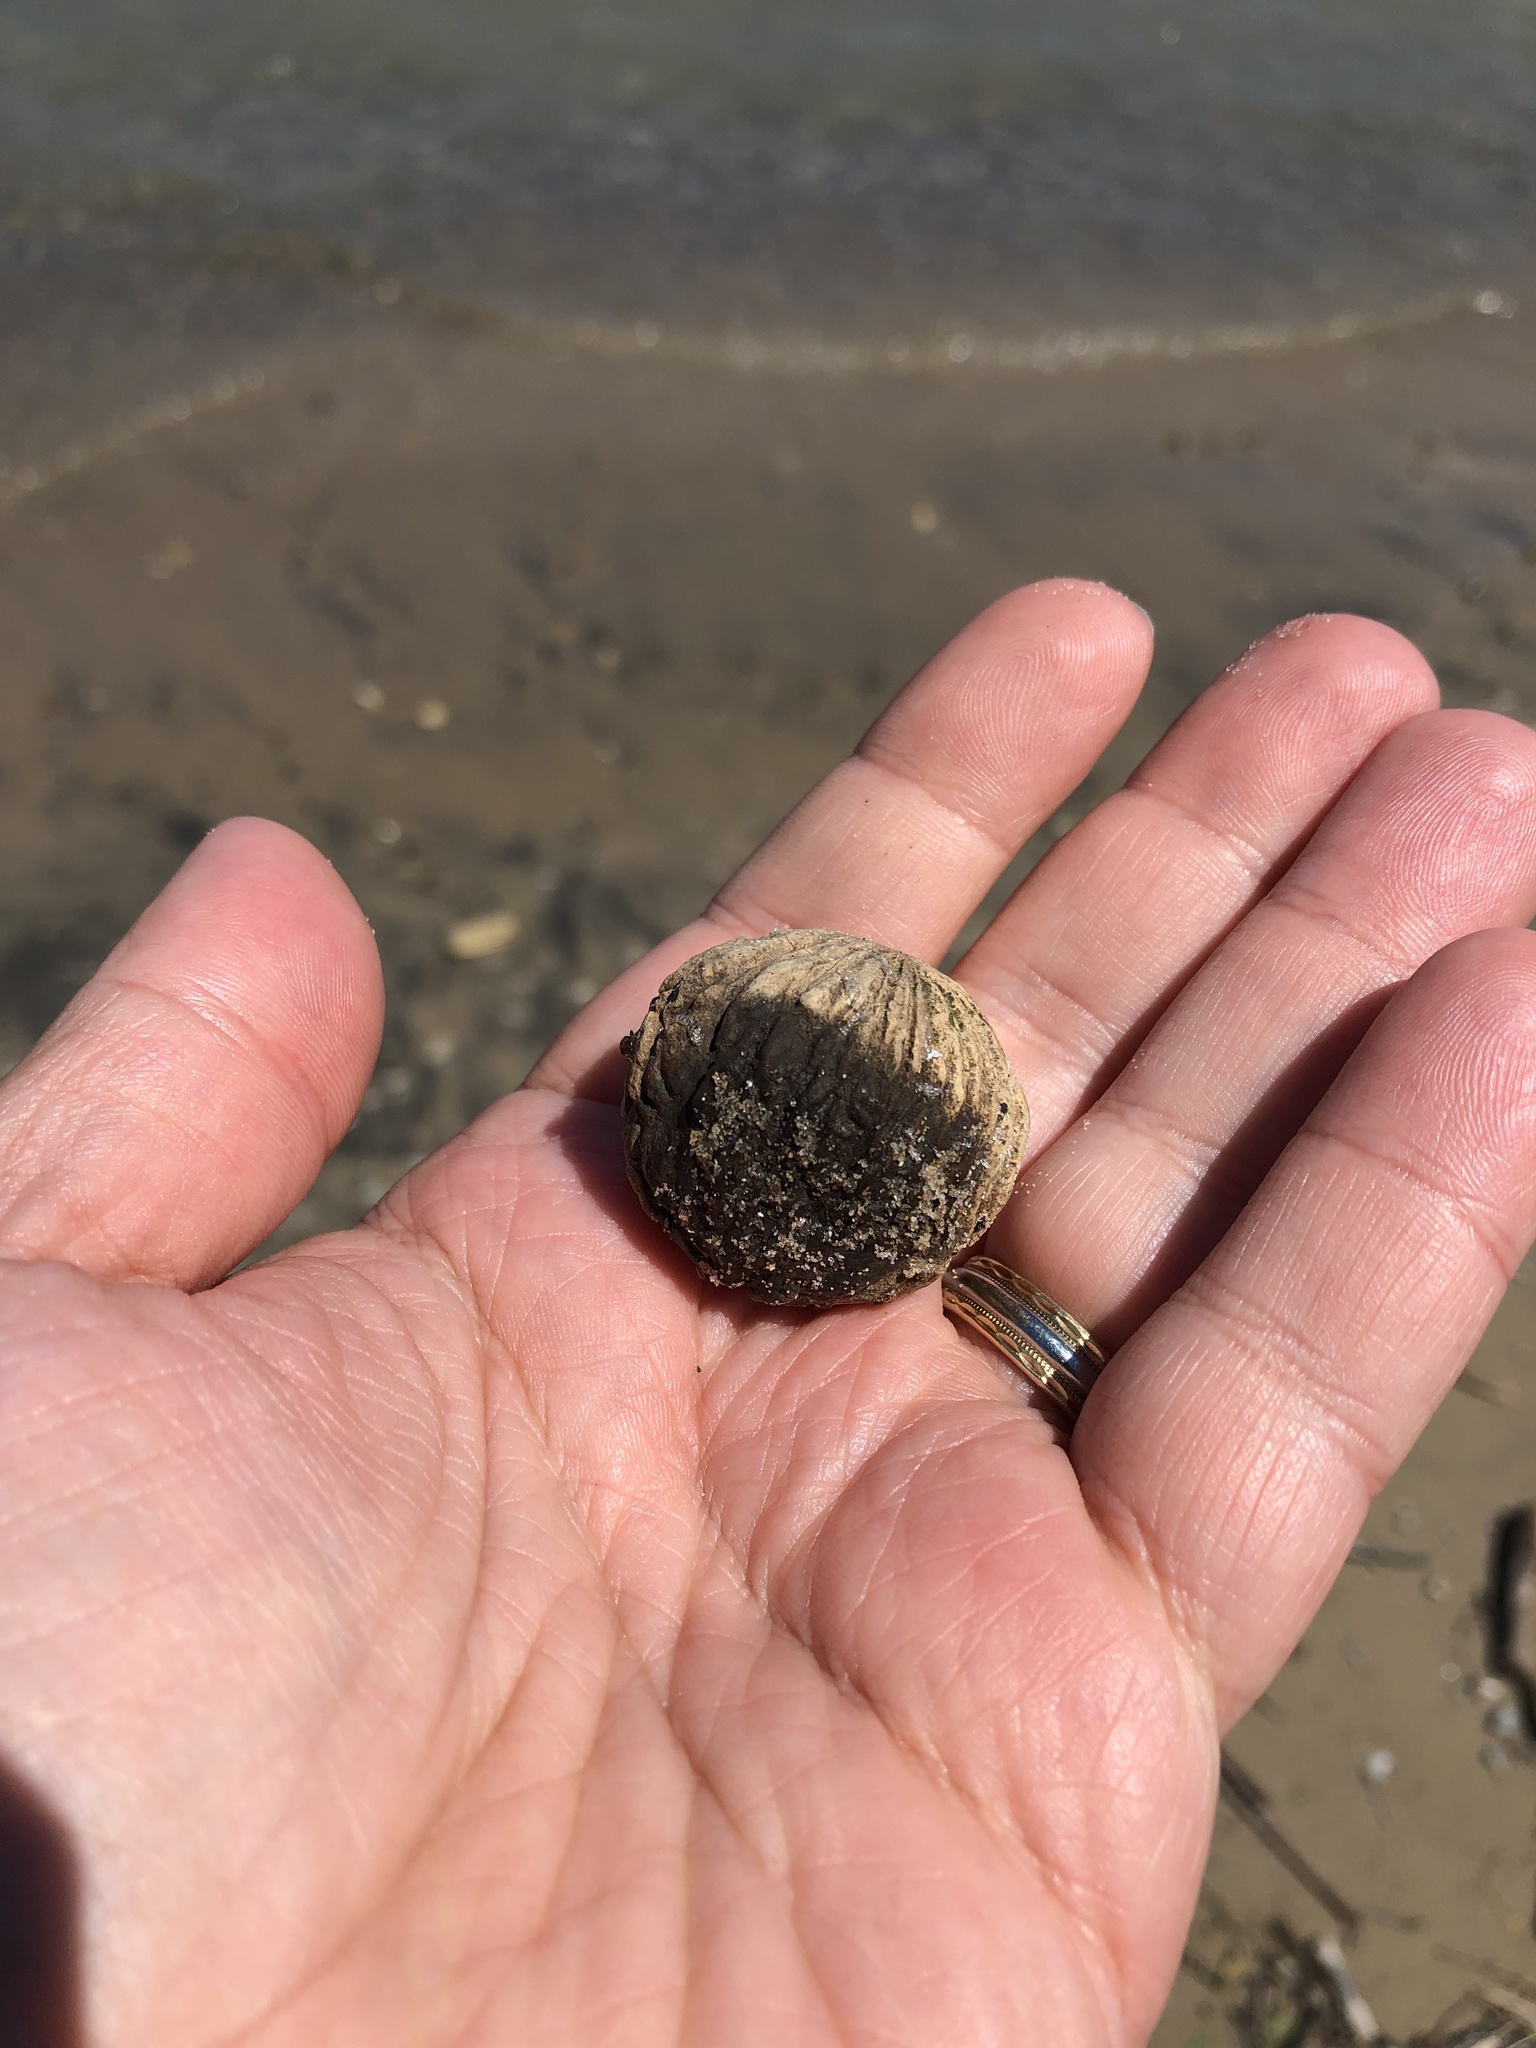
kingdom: Plantae
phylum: Tracheophyta
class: Magnoliopsida
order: Fagales
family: Juglandaceae
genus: Juglans
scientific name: Juglans nigra
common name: Black walnut
